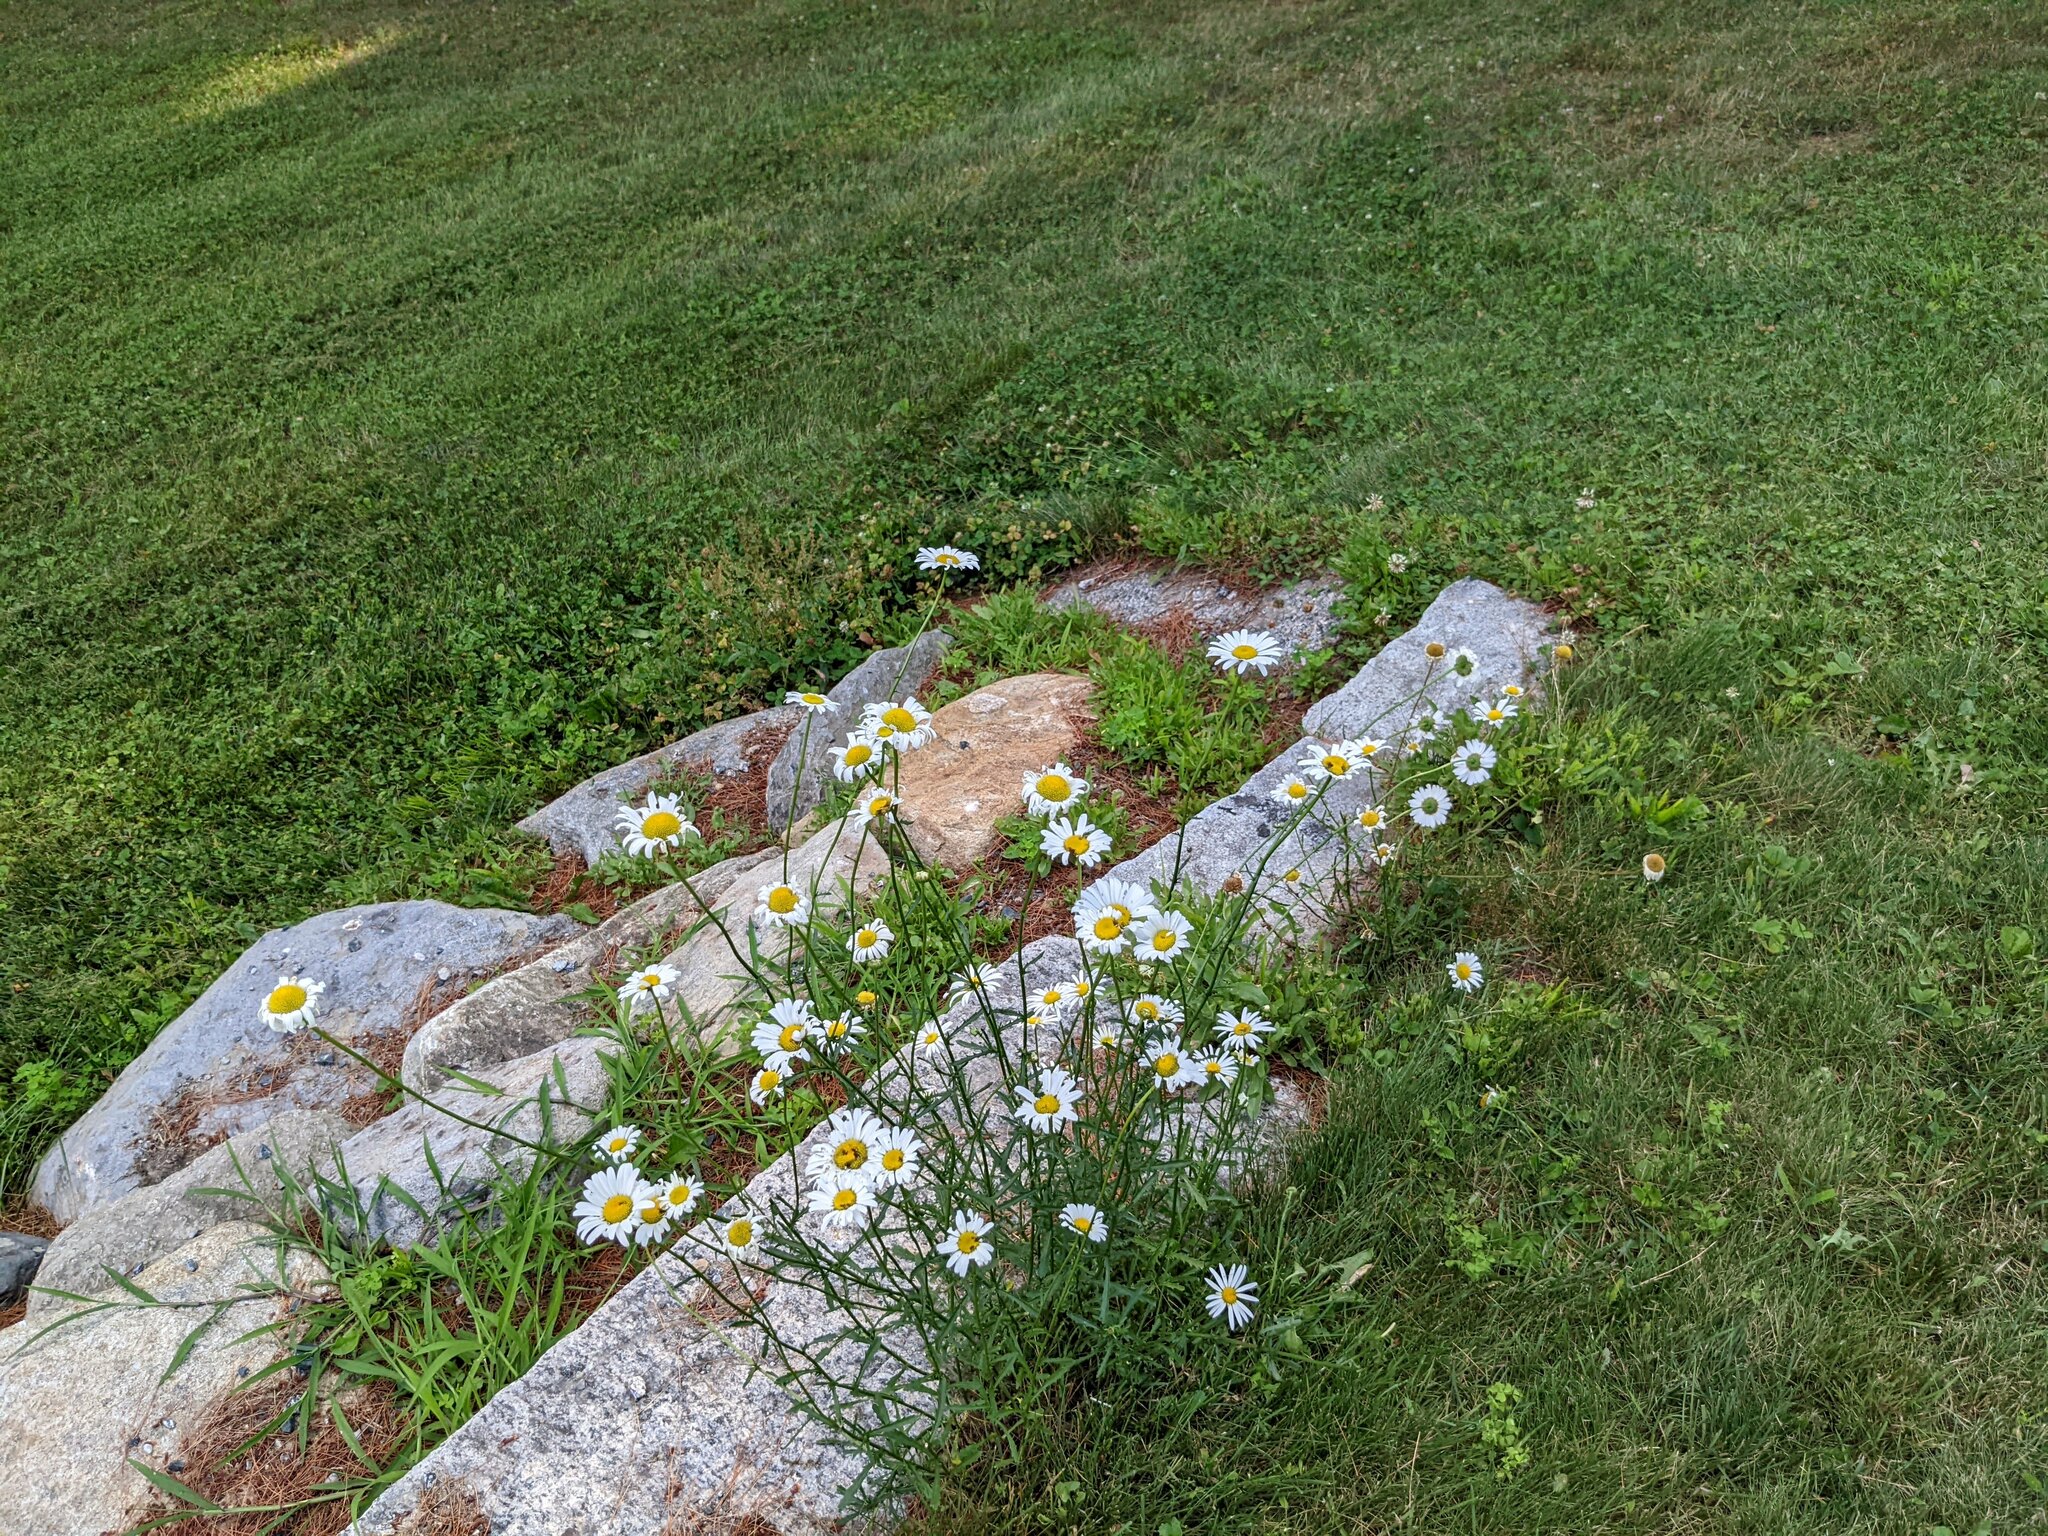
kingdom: Plantae
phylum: Tracheophyta
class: Magnoliopsida
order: Asterales
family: Asteraceae
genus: Leucanthemum
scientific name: Leucanthemum vulgare
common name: Oxeye daisy
